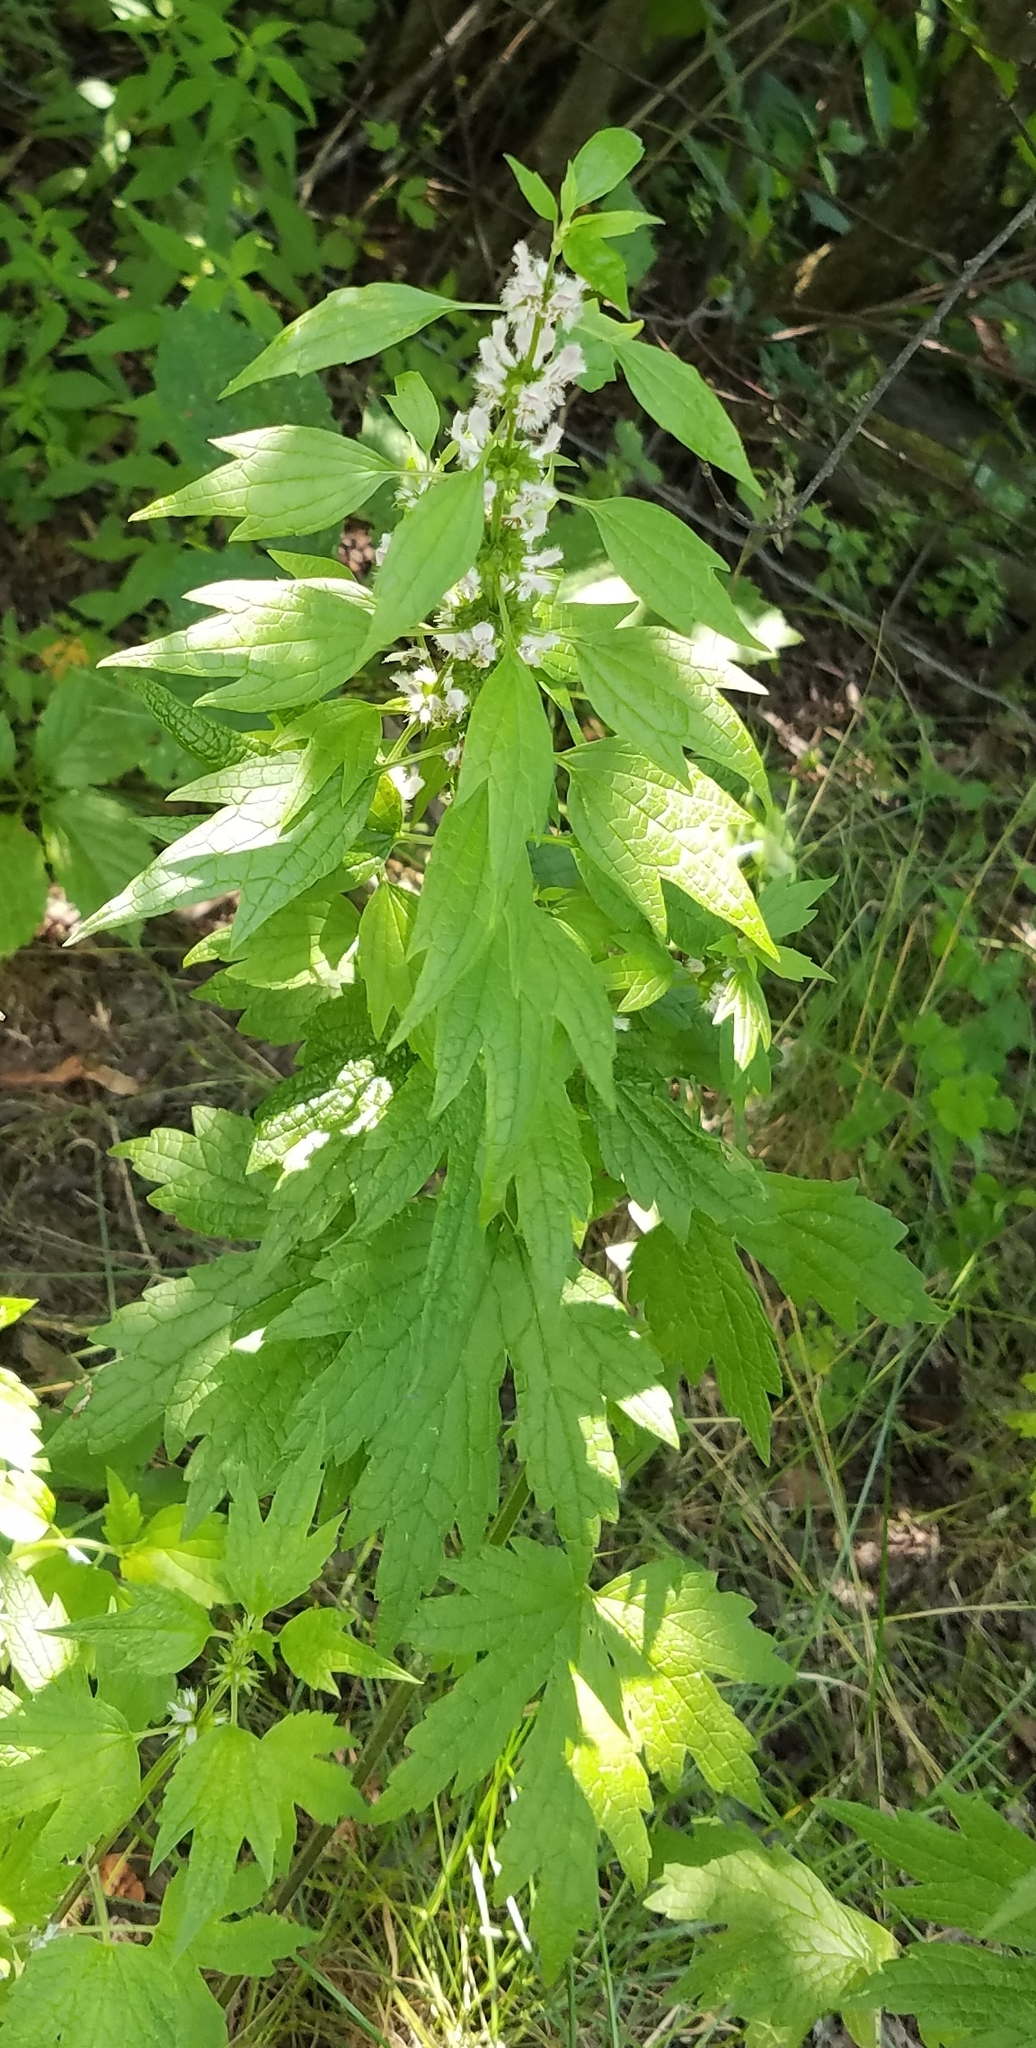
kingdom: Plantae
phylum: Tracheophyta
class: Magnoliopsida
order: Lamiales
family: Lamiaceae
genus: Leonurus
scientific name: Leonurus cardiaca
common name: Motherwort
